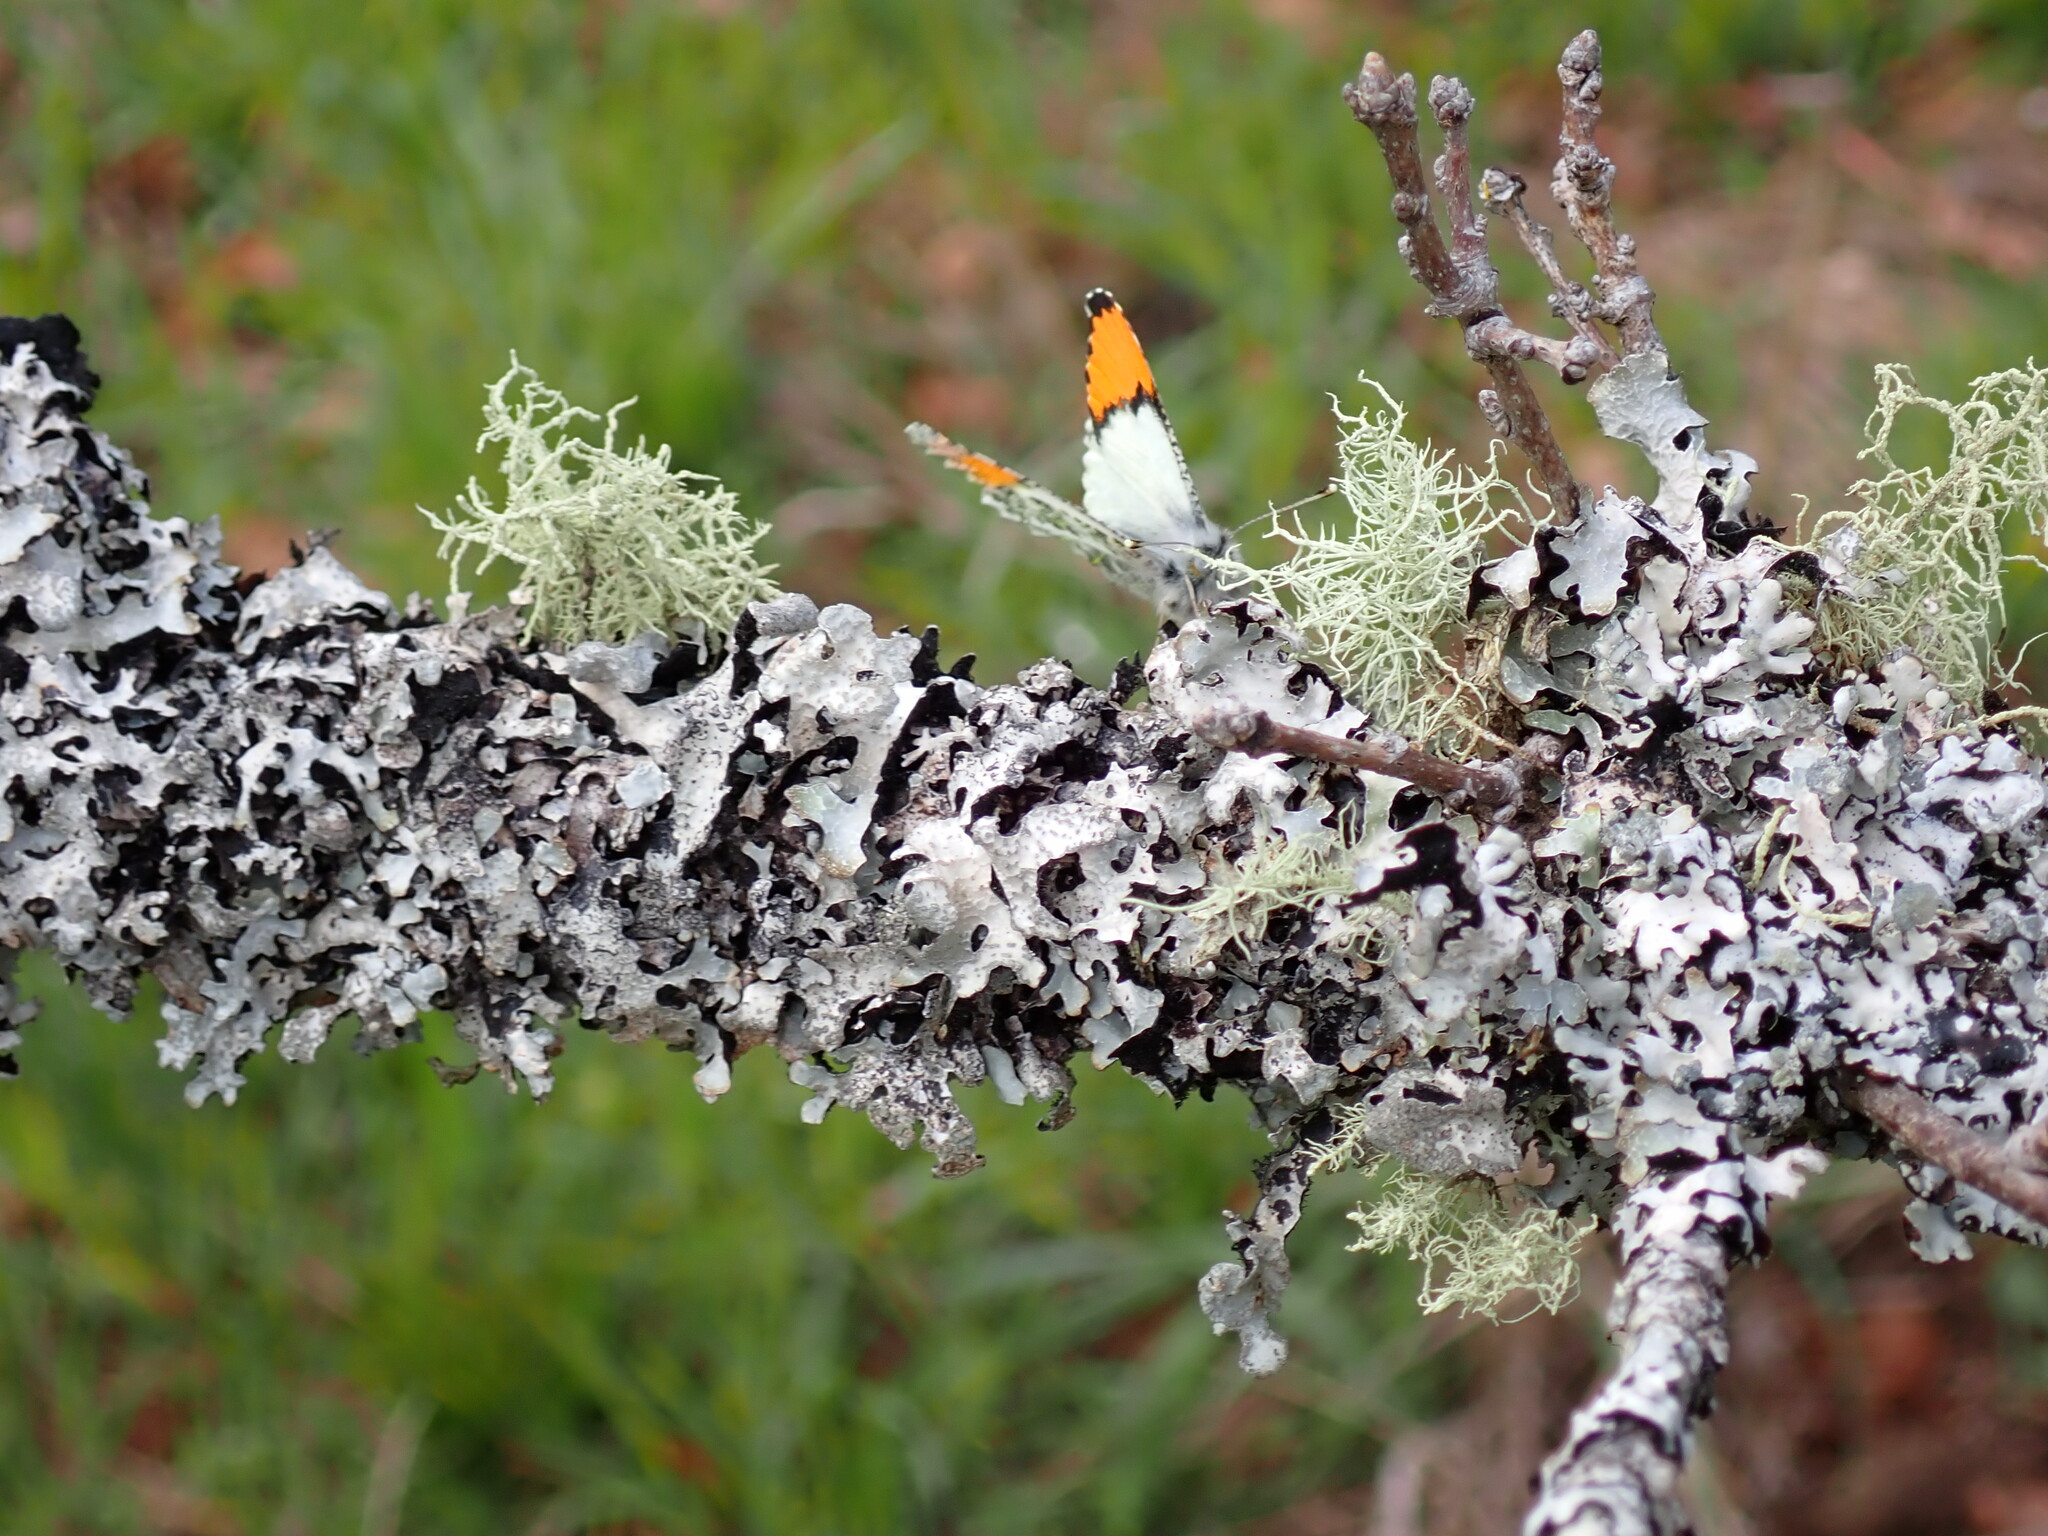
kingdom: Animalia
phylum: Arthropoda
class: Insecta
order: Lepidoptera
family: Pieridae
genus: Anthocharis
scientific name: Anthocharis julia
